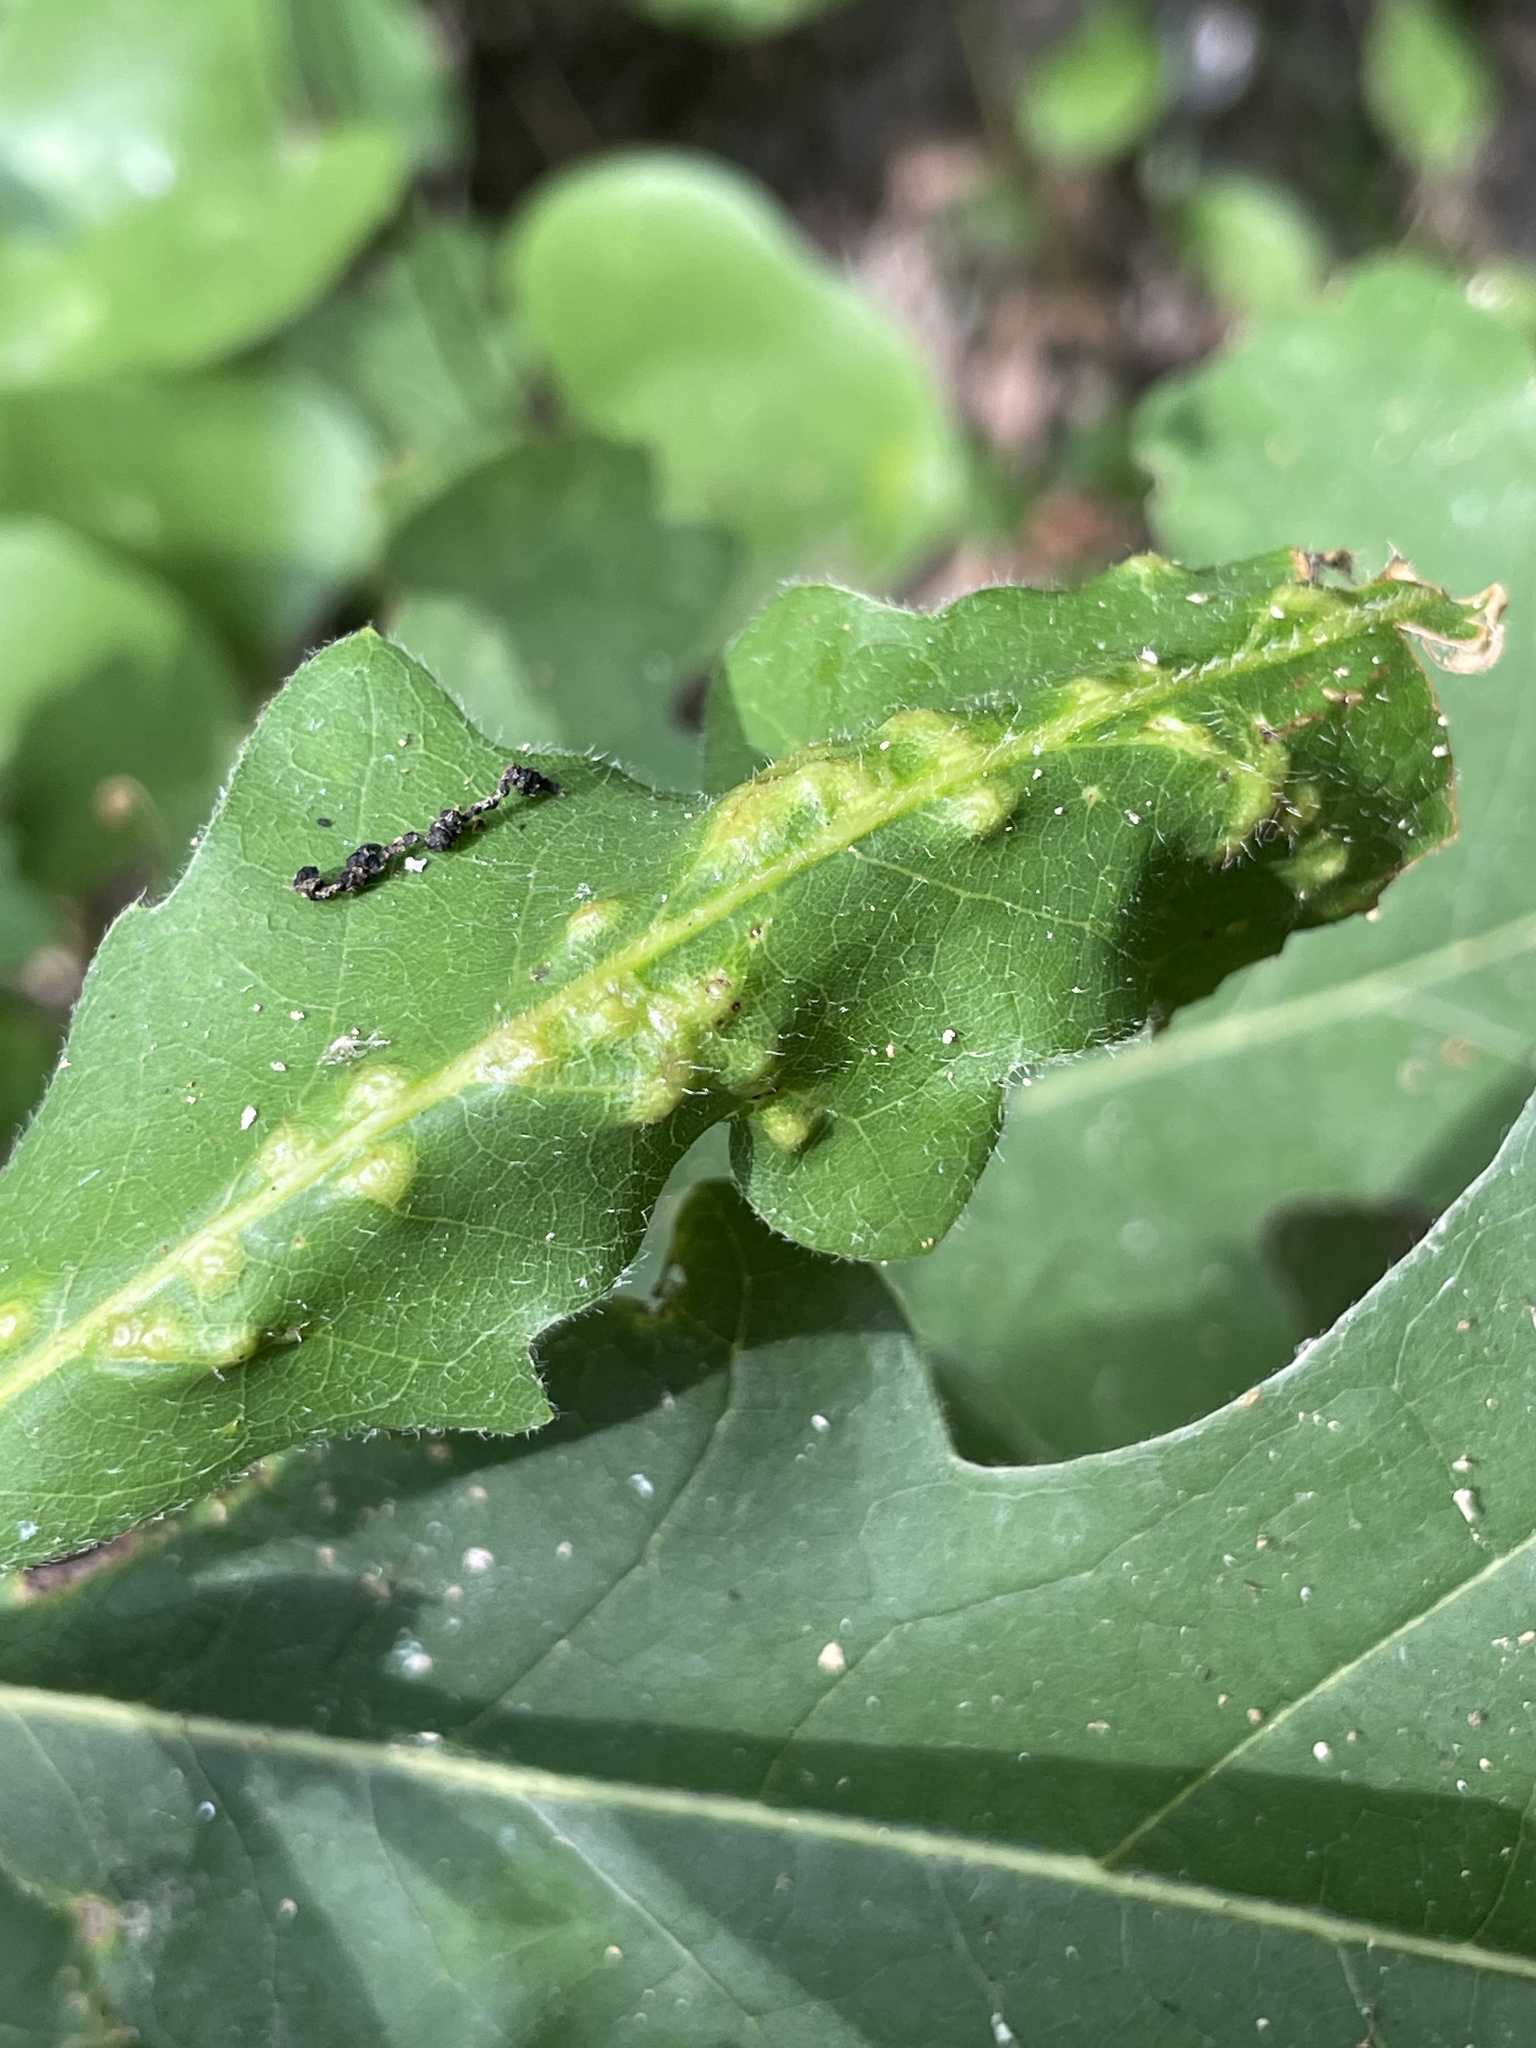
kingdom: Animalia
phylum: Arthropoda
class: Insecta
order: Hymenoptera
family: Cynipidae
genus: Neuroterus
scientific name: Neuroterus quercusverrucarum
